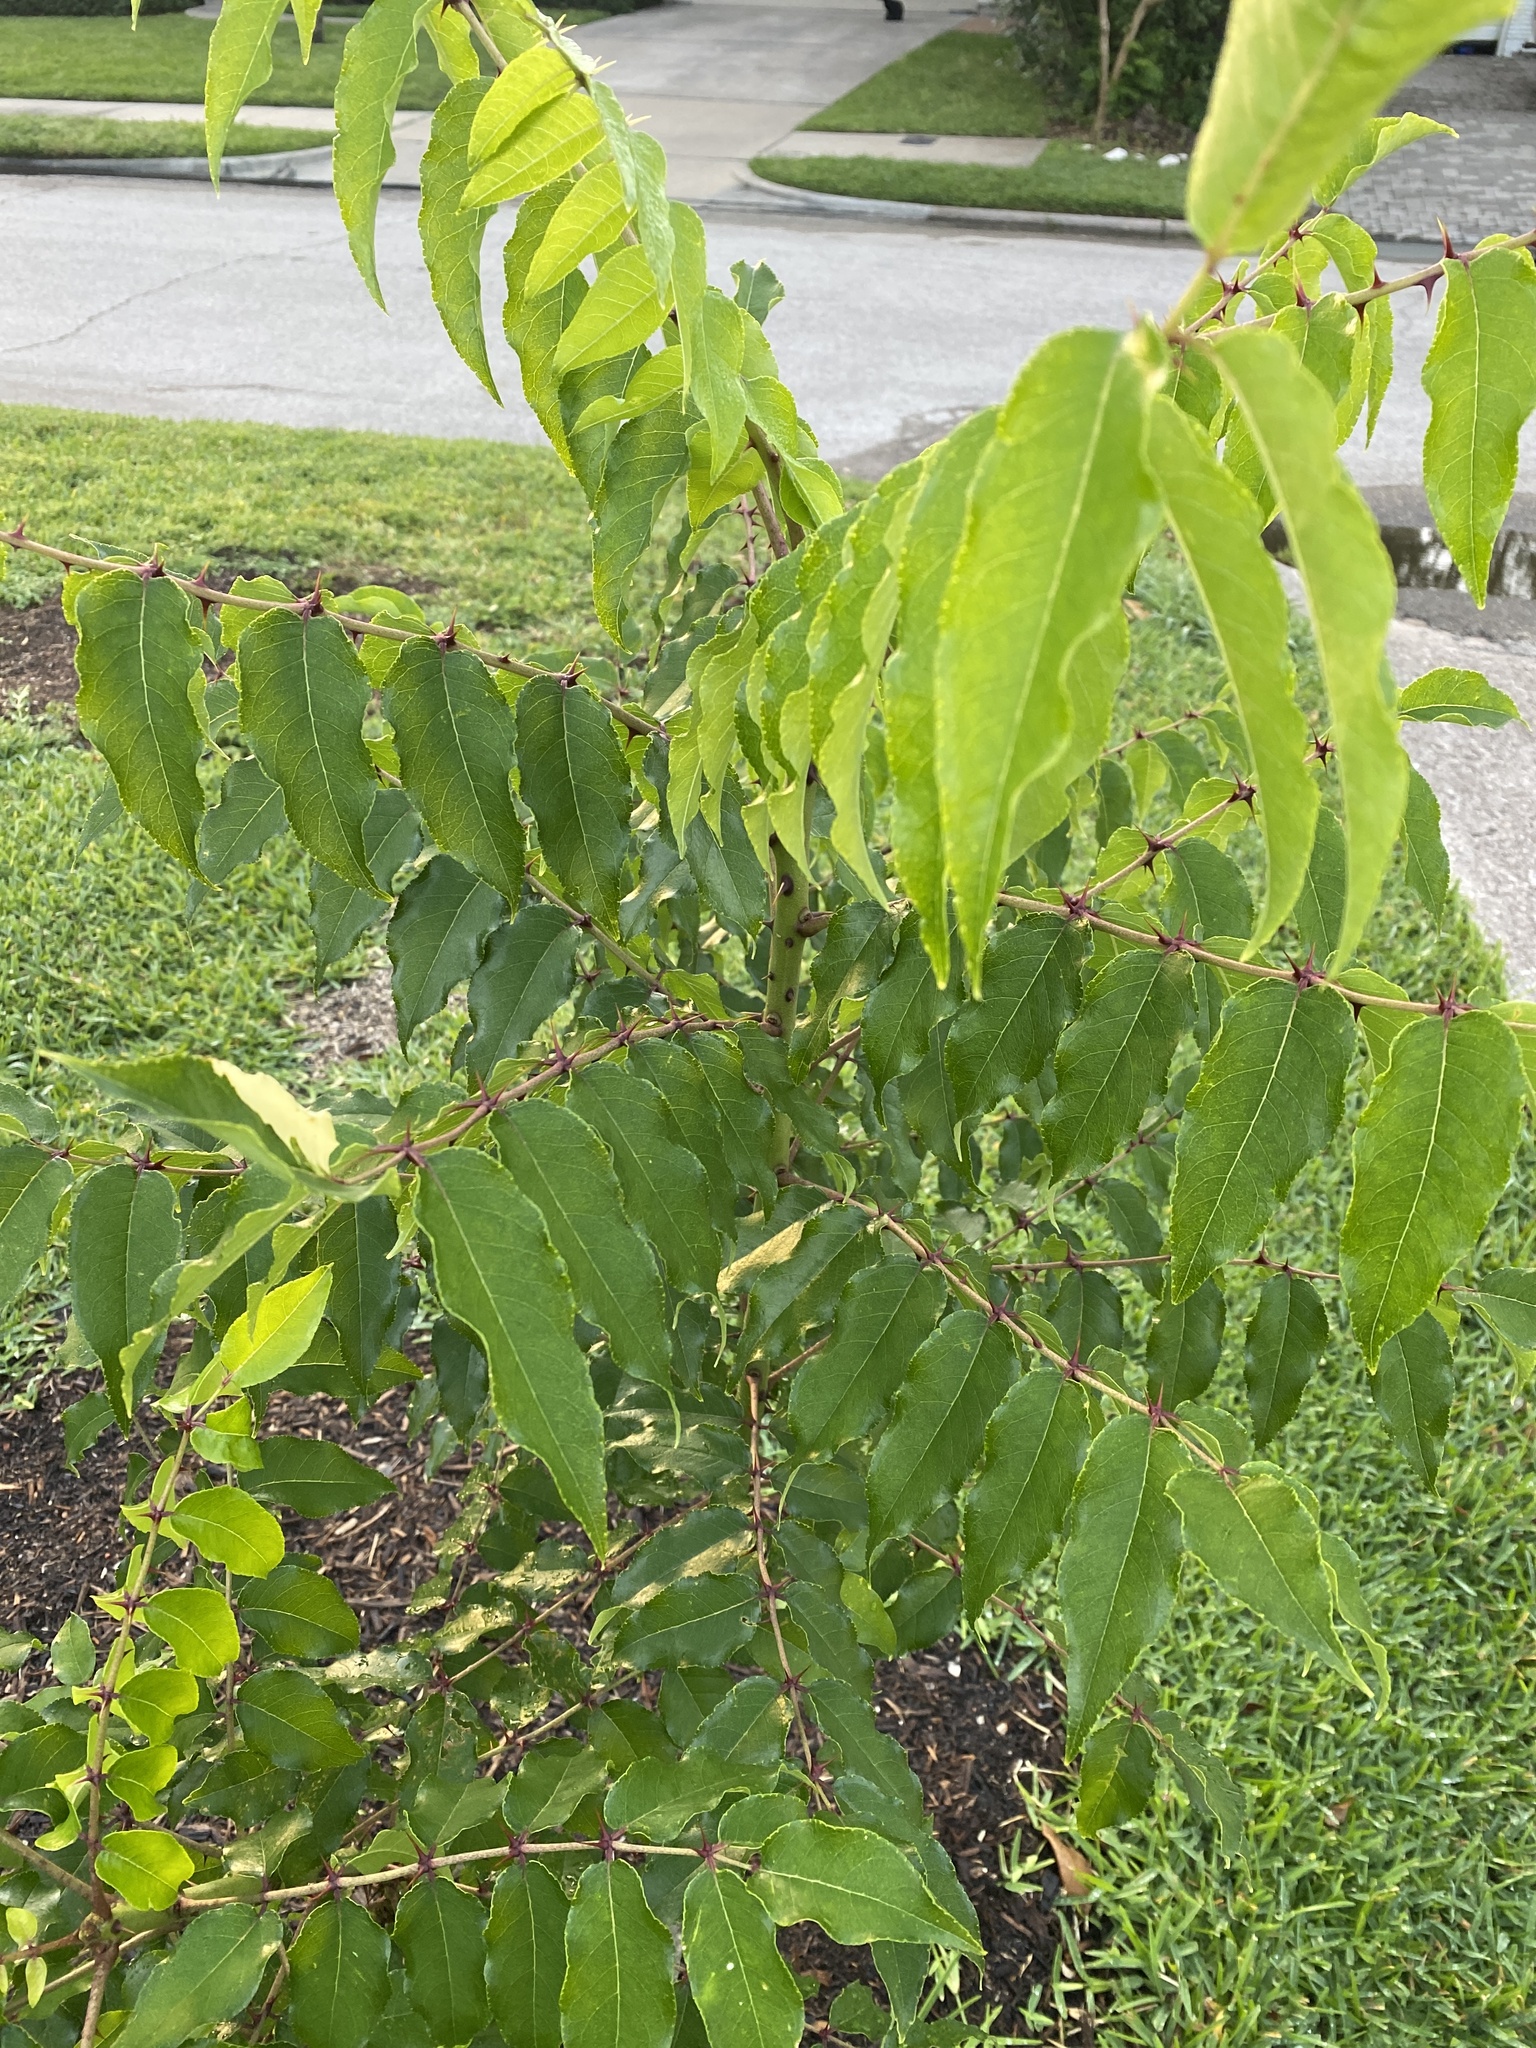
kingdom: Plantae
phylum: Tracheophyta
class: Magnoliopsida
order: Sapindales
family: Rutaceae
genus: Zanthoxylum
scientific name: Zanthoxylum clava-herculis
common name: Hercules'-club
